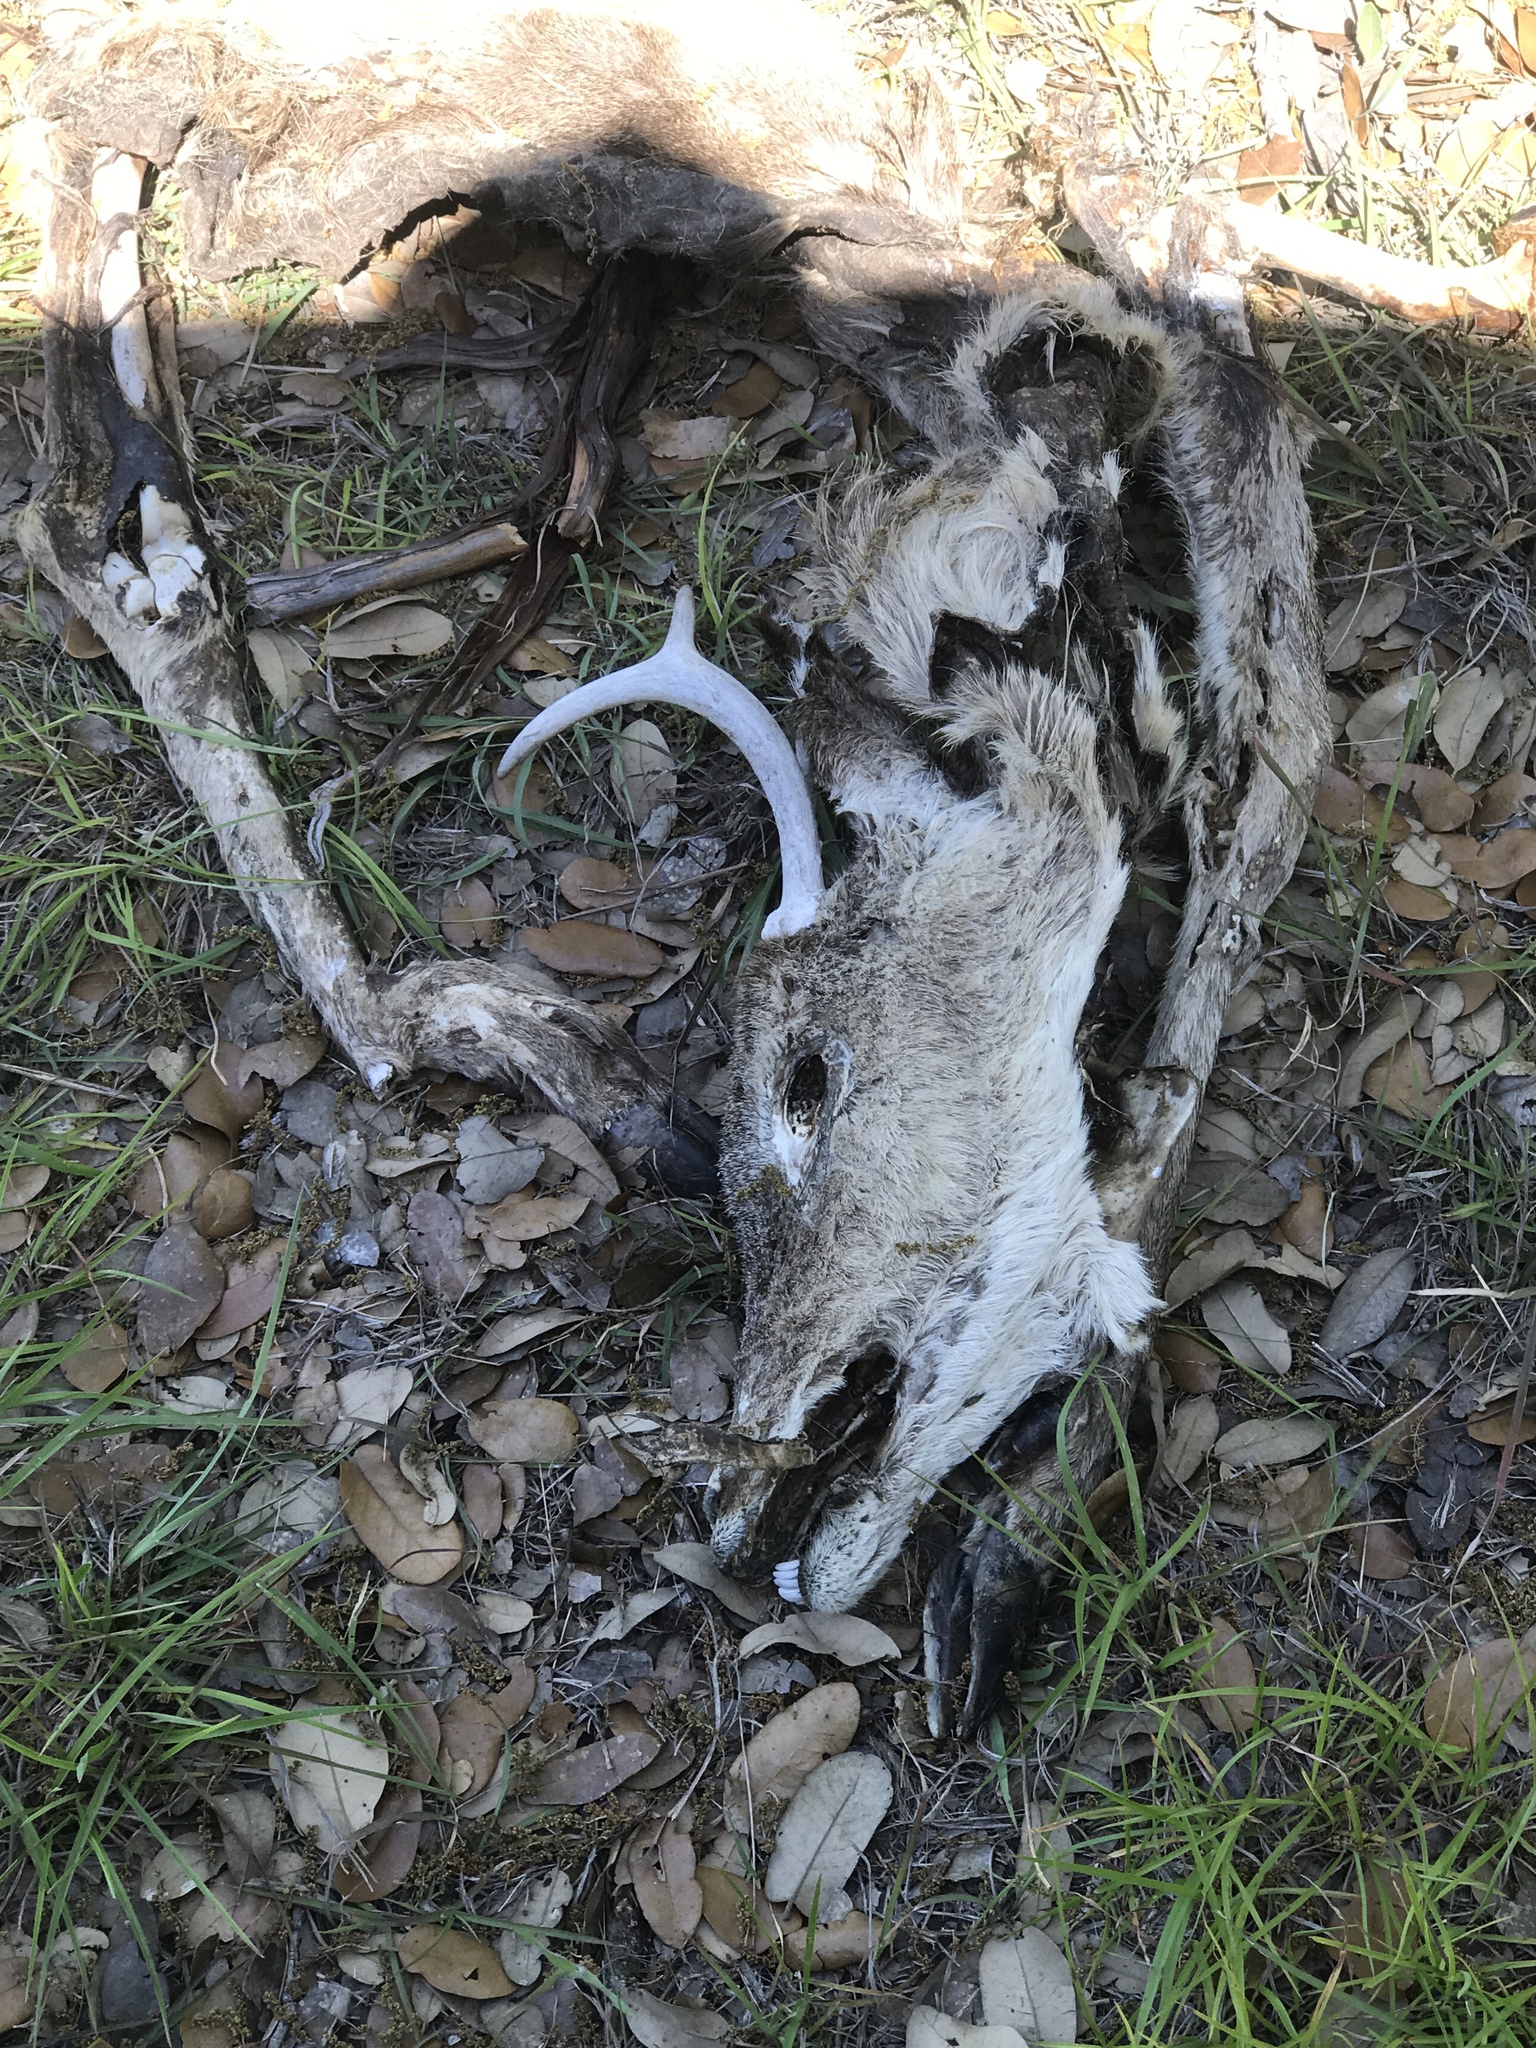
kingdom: Animalia
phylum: Chordata
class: Mammalia
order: Artiodactyla
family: Cervidae
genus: Odocoileus
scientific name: Odocoileus virginianus
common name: White-tailed deer
